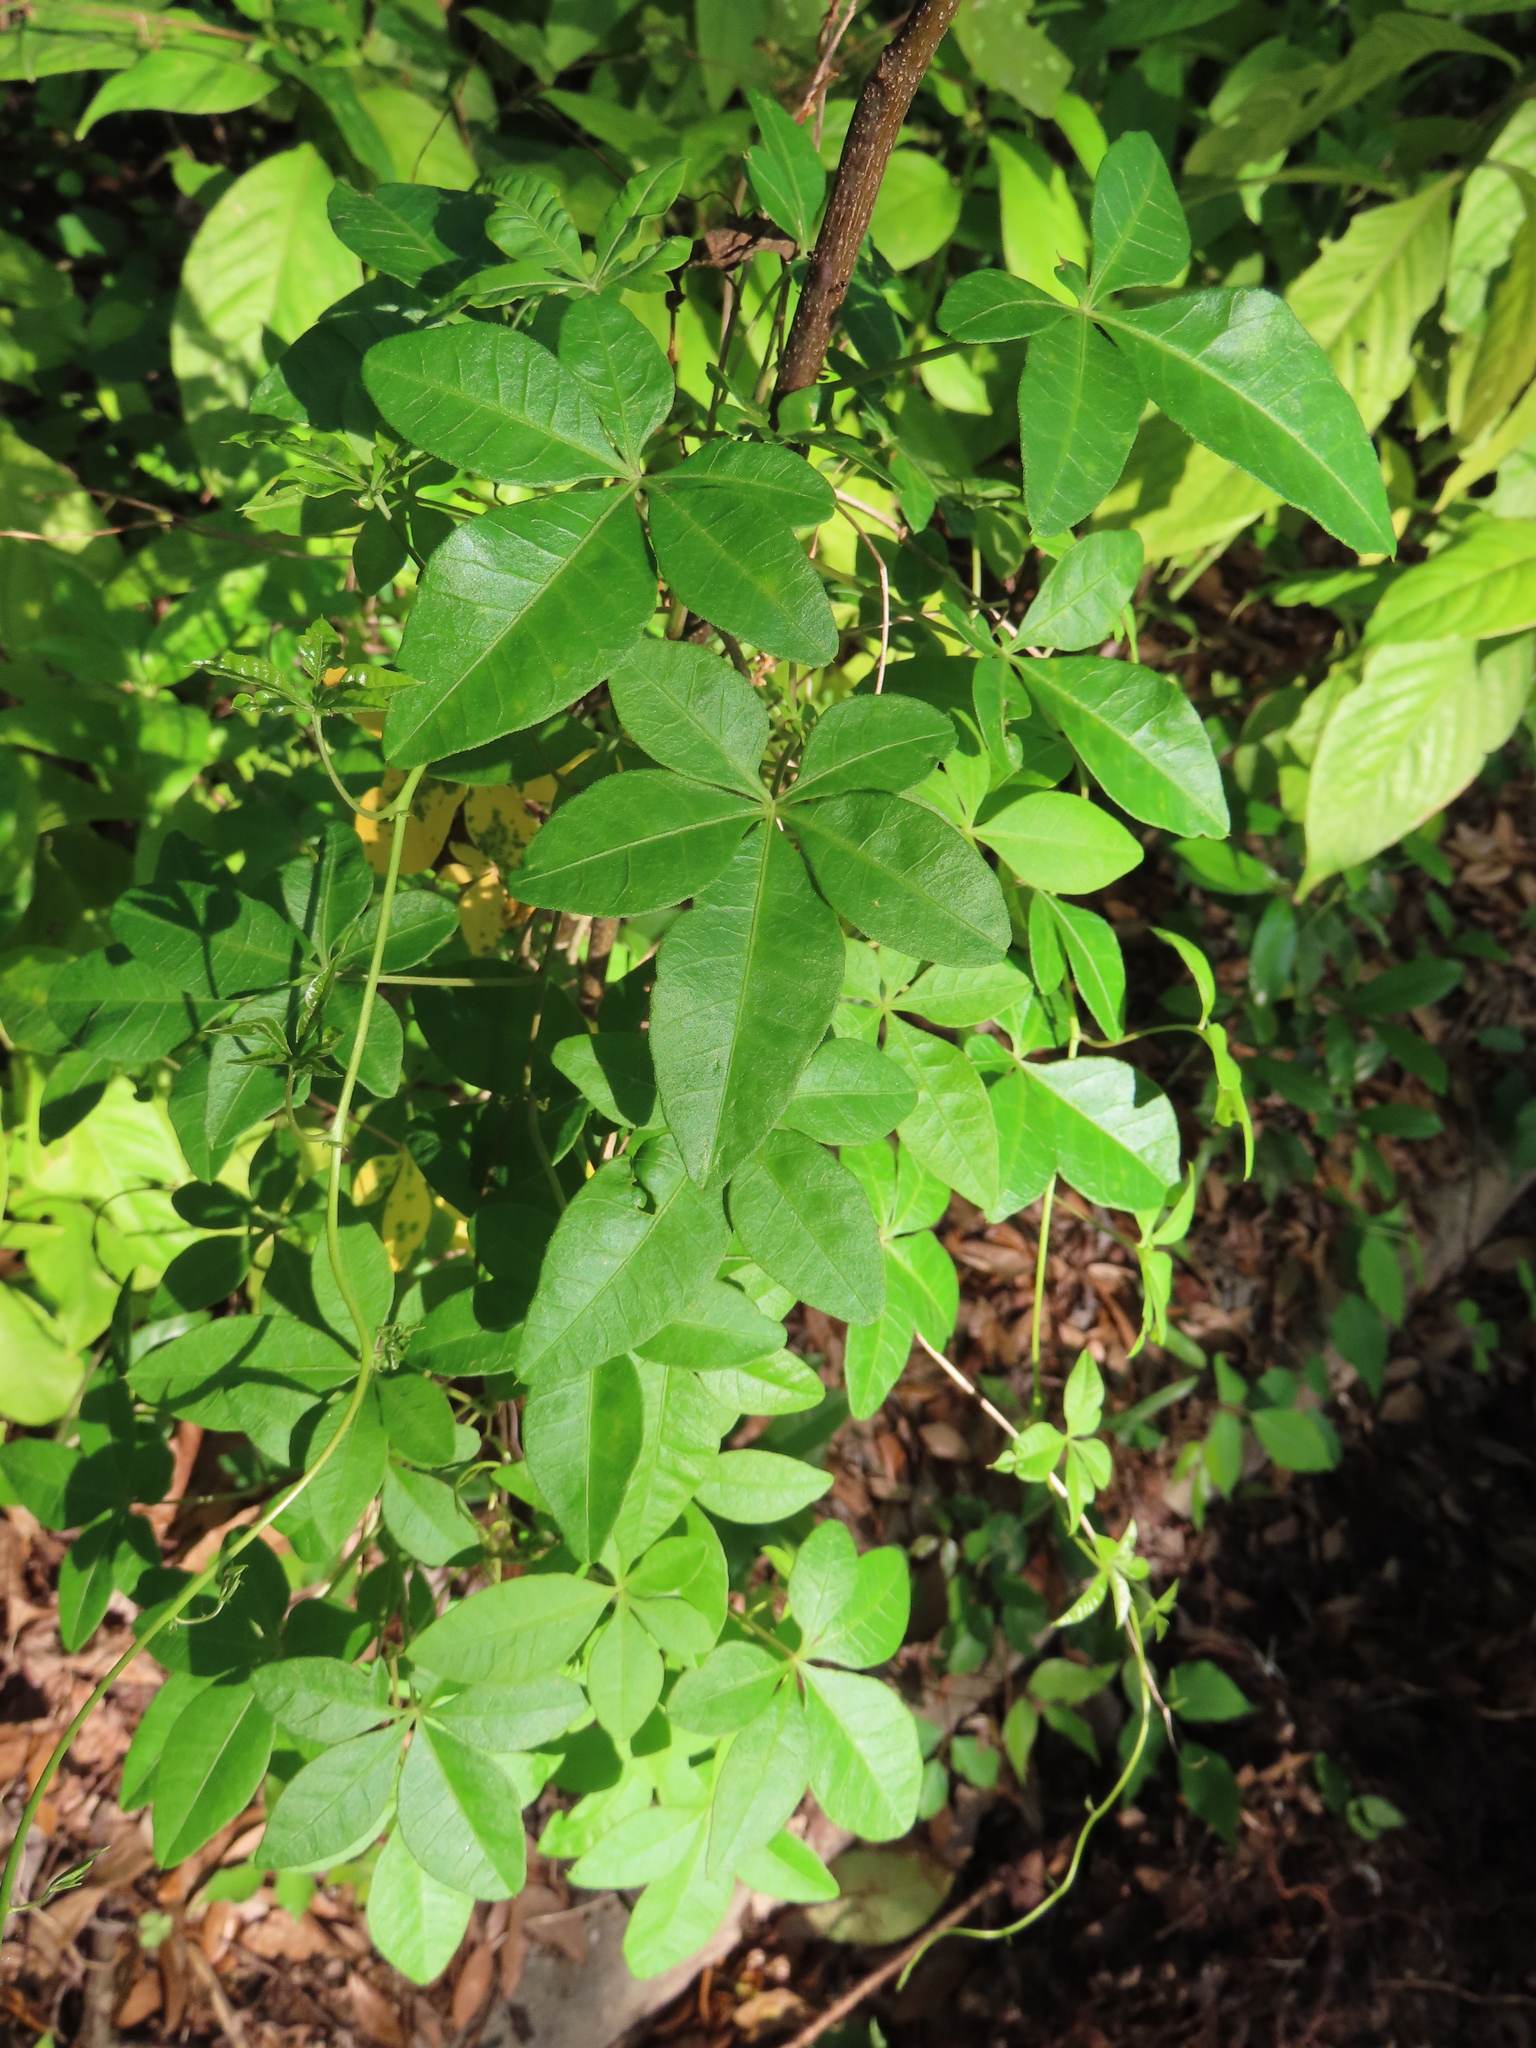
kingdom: Plantae
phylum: Tracheophyta
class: Magnoliopsida
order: Solanales
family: Convolvulaceae
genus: Ipomoea
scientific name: Ipomoea cairica
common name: Mile a minute vine
